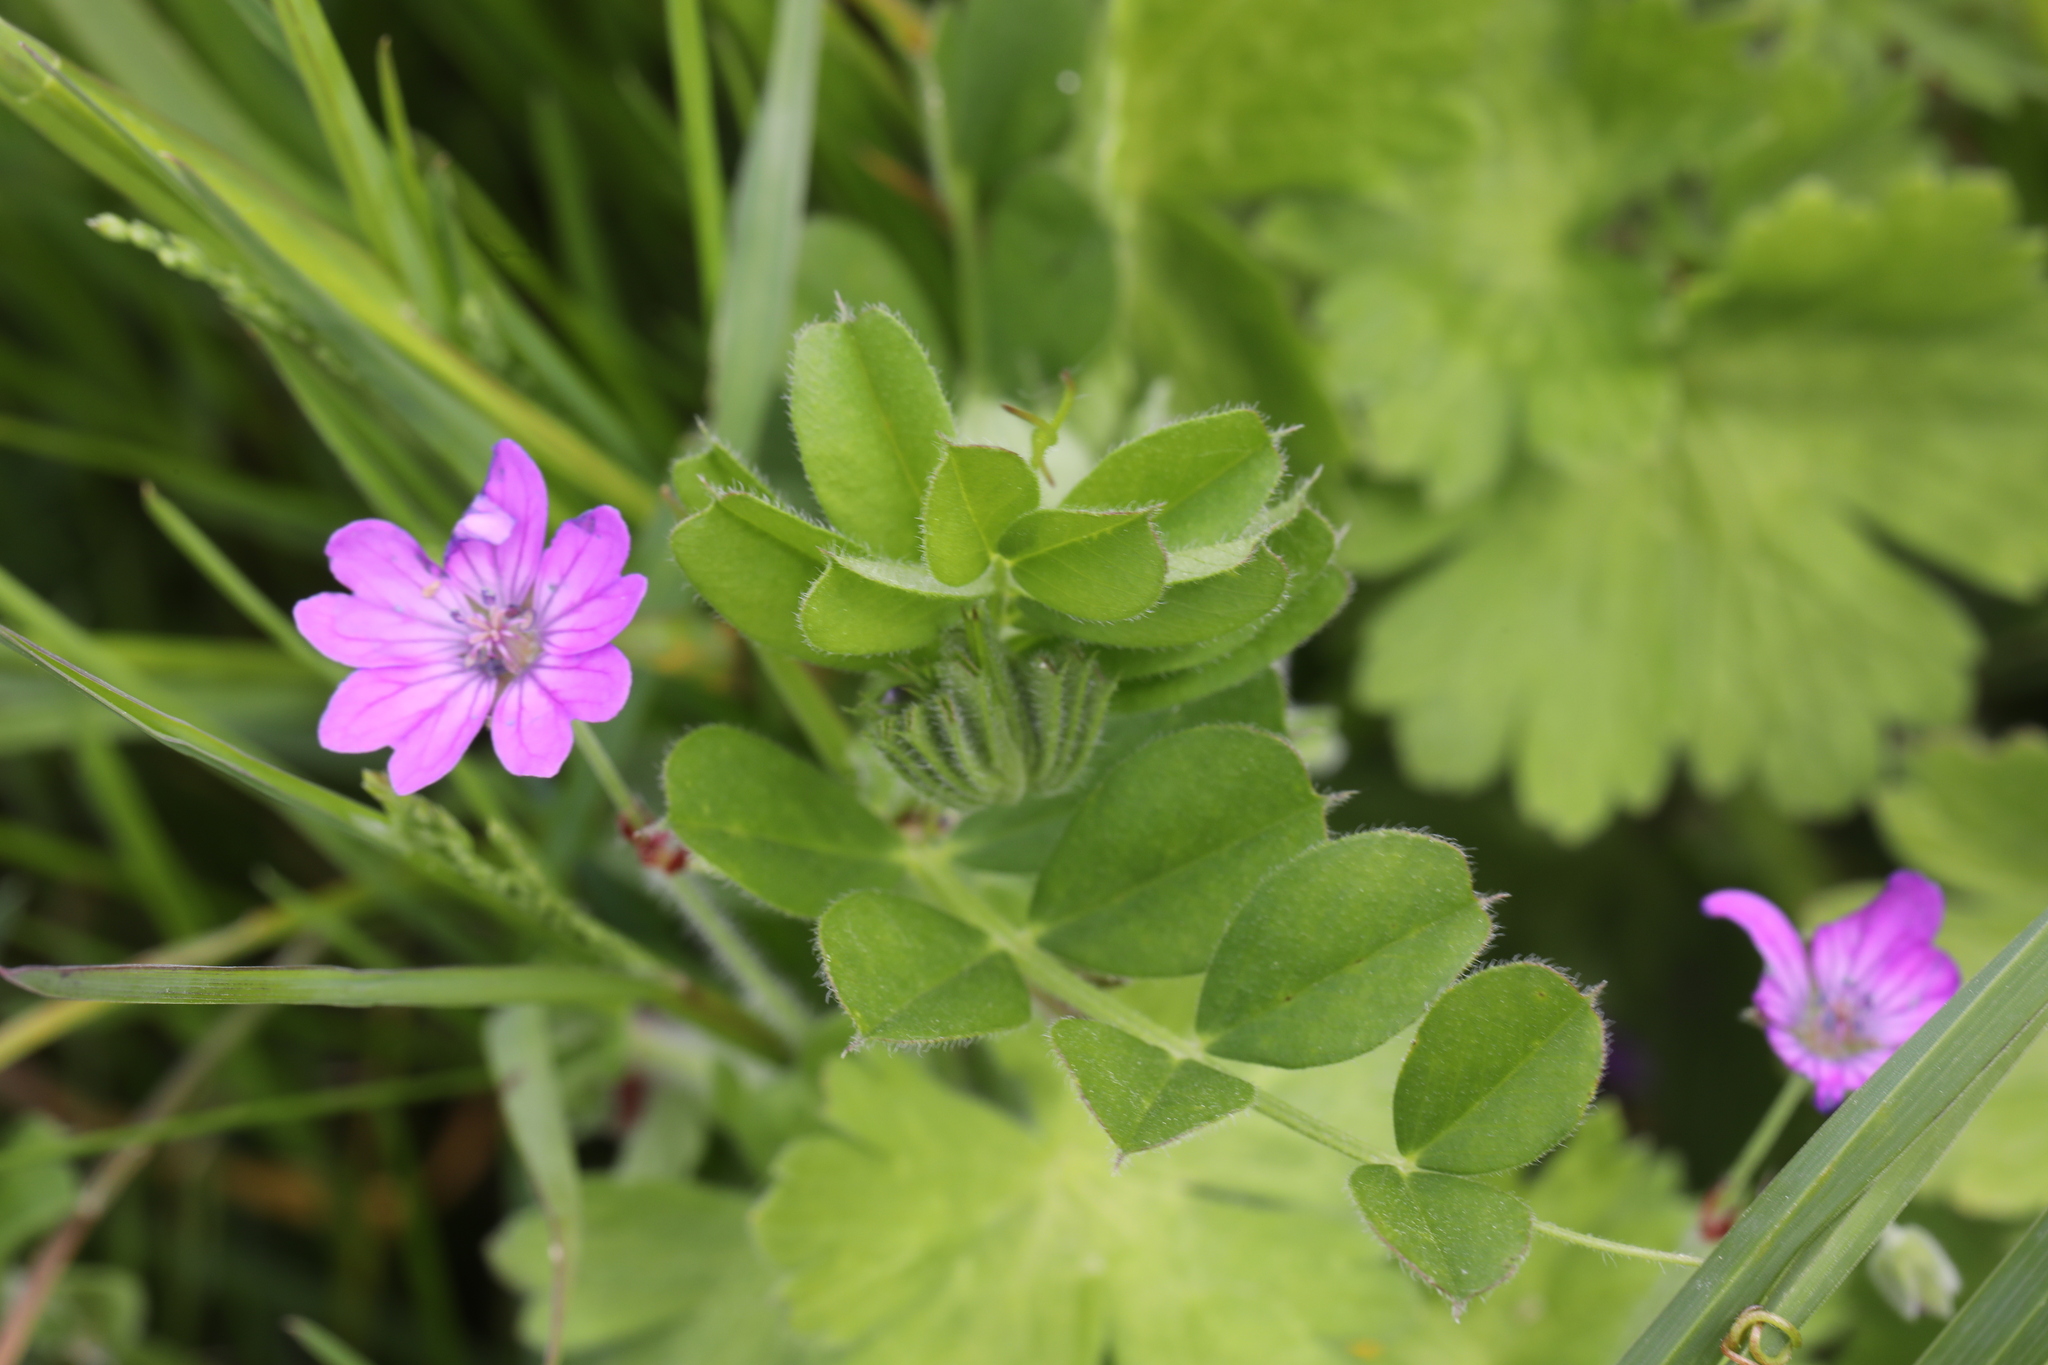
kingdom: Plantae
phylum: Tracheophyta
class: Magnoliopsida
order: Geraniales
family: Geraniaceae
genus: Geranium
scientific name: Geranium pyrenaicum
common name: Hedgerow crane's-bill
